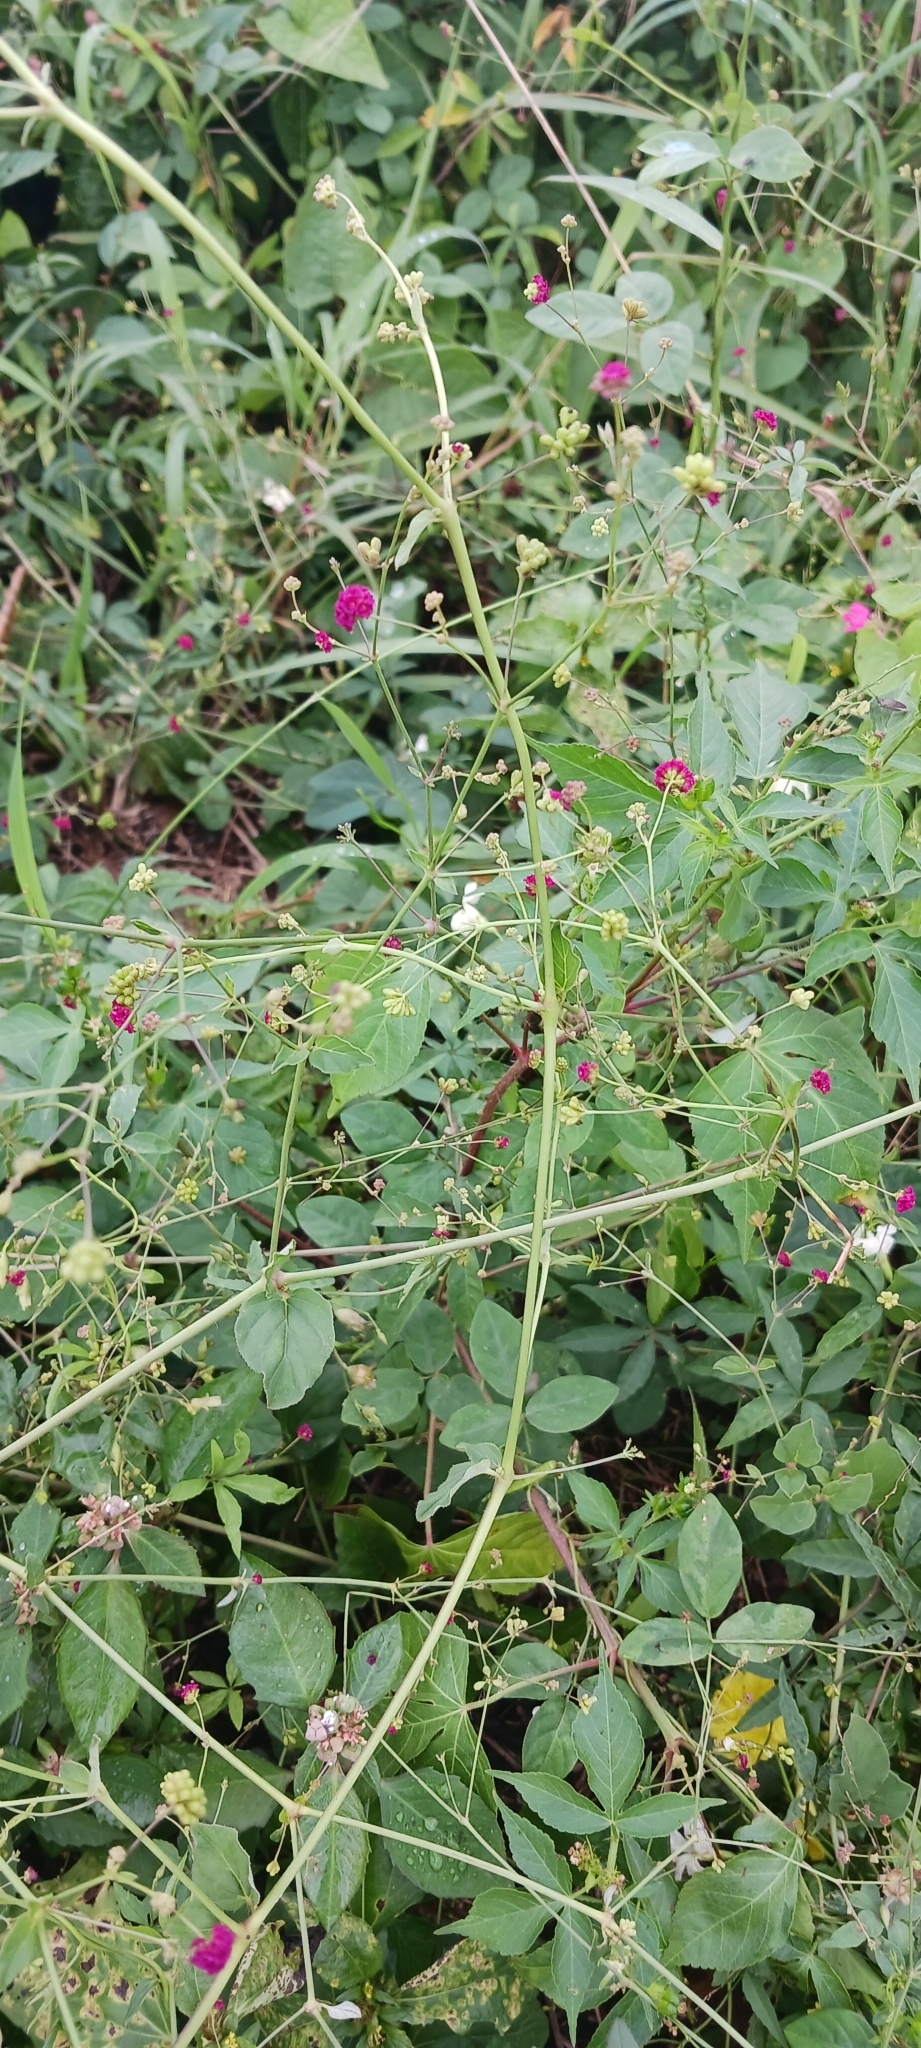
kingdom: Plantae
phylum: Tracheophyta
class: Magnoliopsida
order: Caryophyllales
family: Nyctaginaceae
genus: Boerhavia
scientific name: Boerhavia coccinea
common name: Scarlet spiderling
